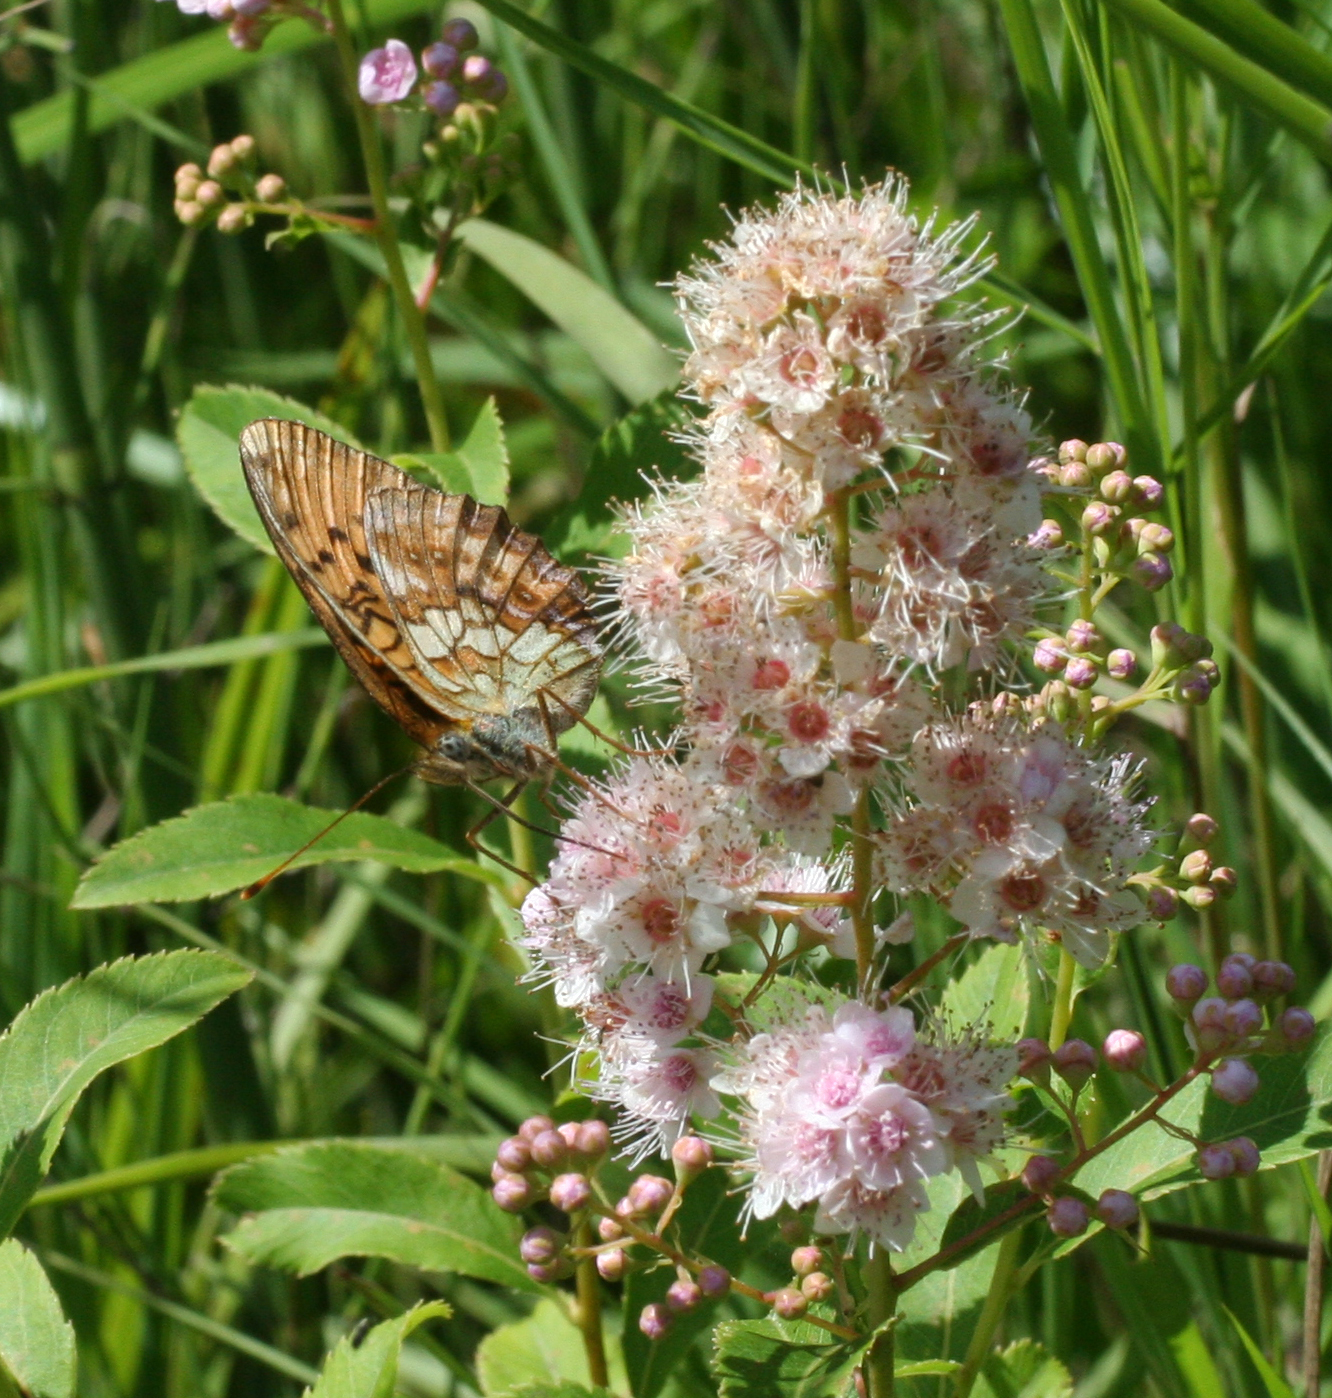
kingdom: Animalia
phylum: Arthropoda
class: Insecta
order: Lepidoptera
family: Nymphalidae
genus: Brenthis
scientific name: Brenthis ino
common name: Lesser marbled fritillary
